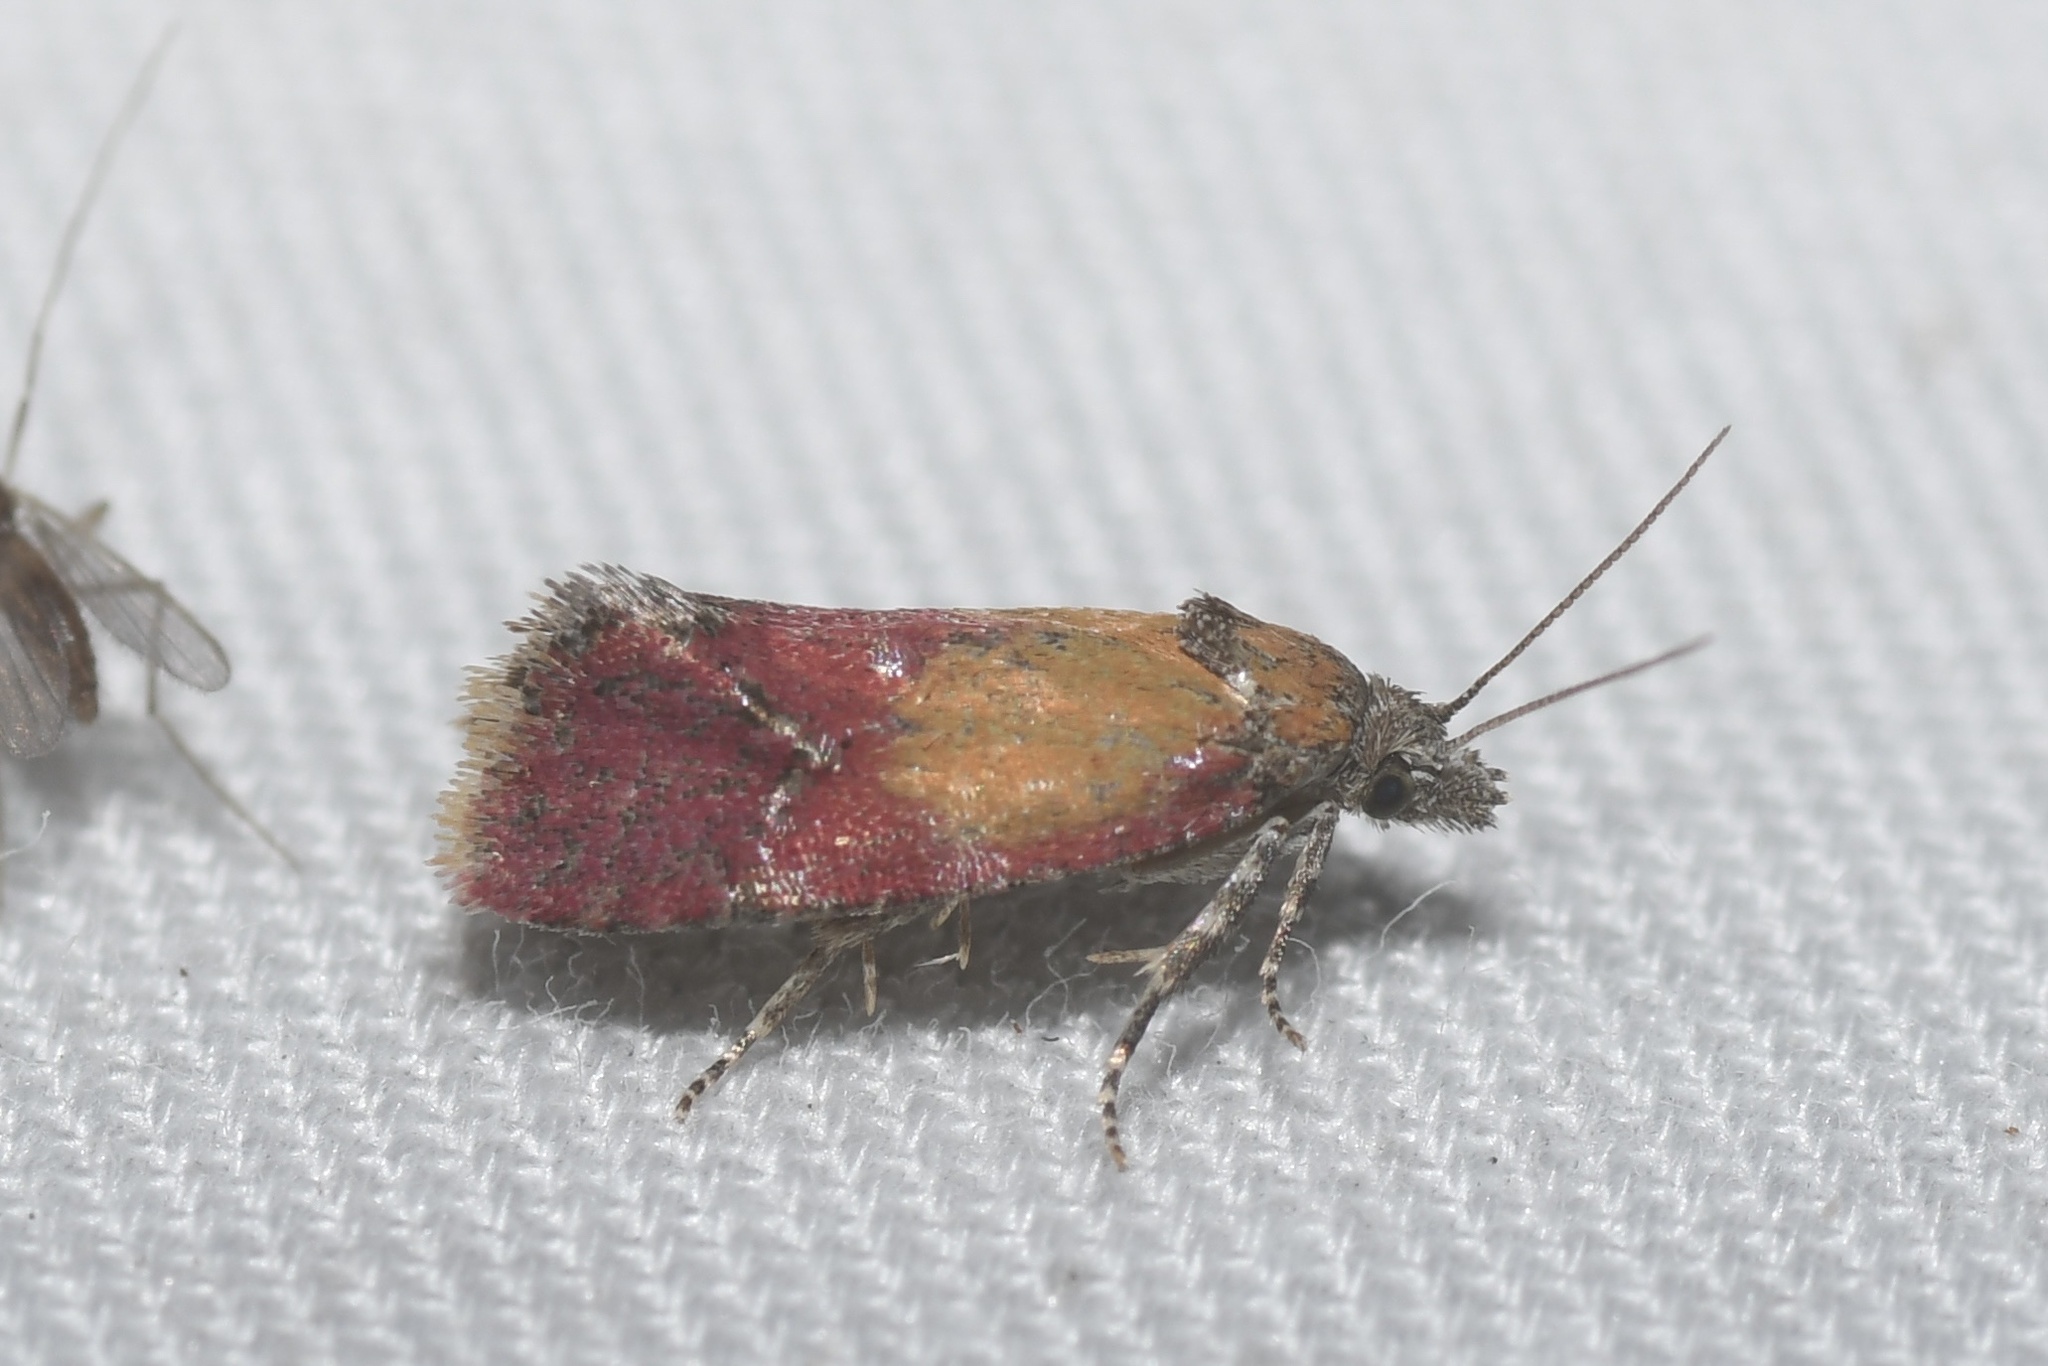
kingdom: Animalia
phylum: Arthropoda
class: Insecta
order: Lepidoptera
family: Tortricidae
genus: Conchylis
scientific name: Conchylis oenotherana
